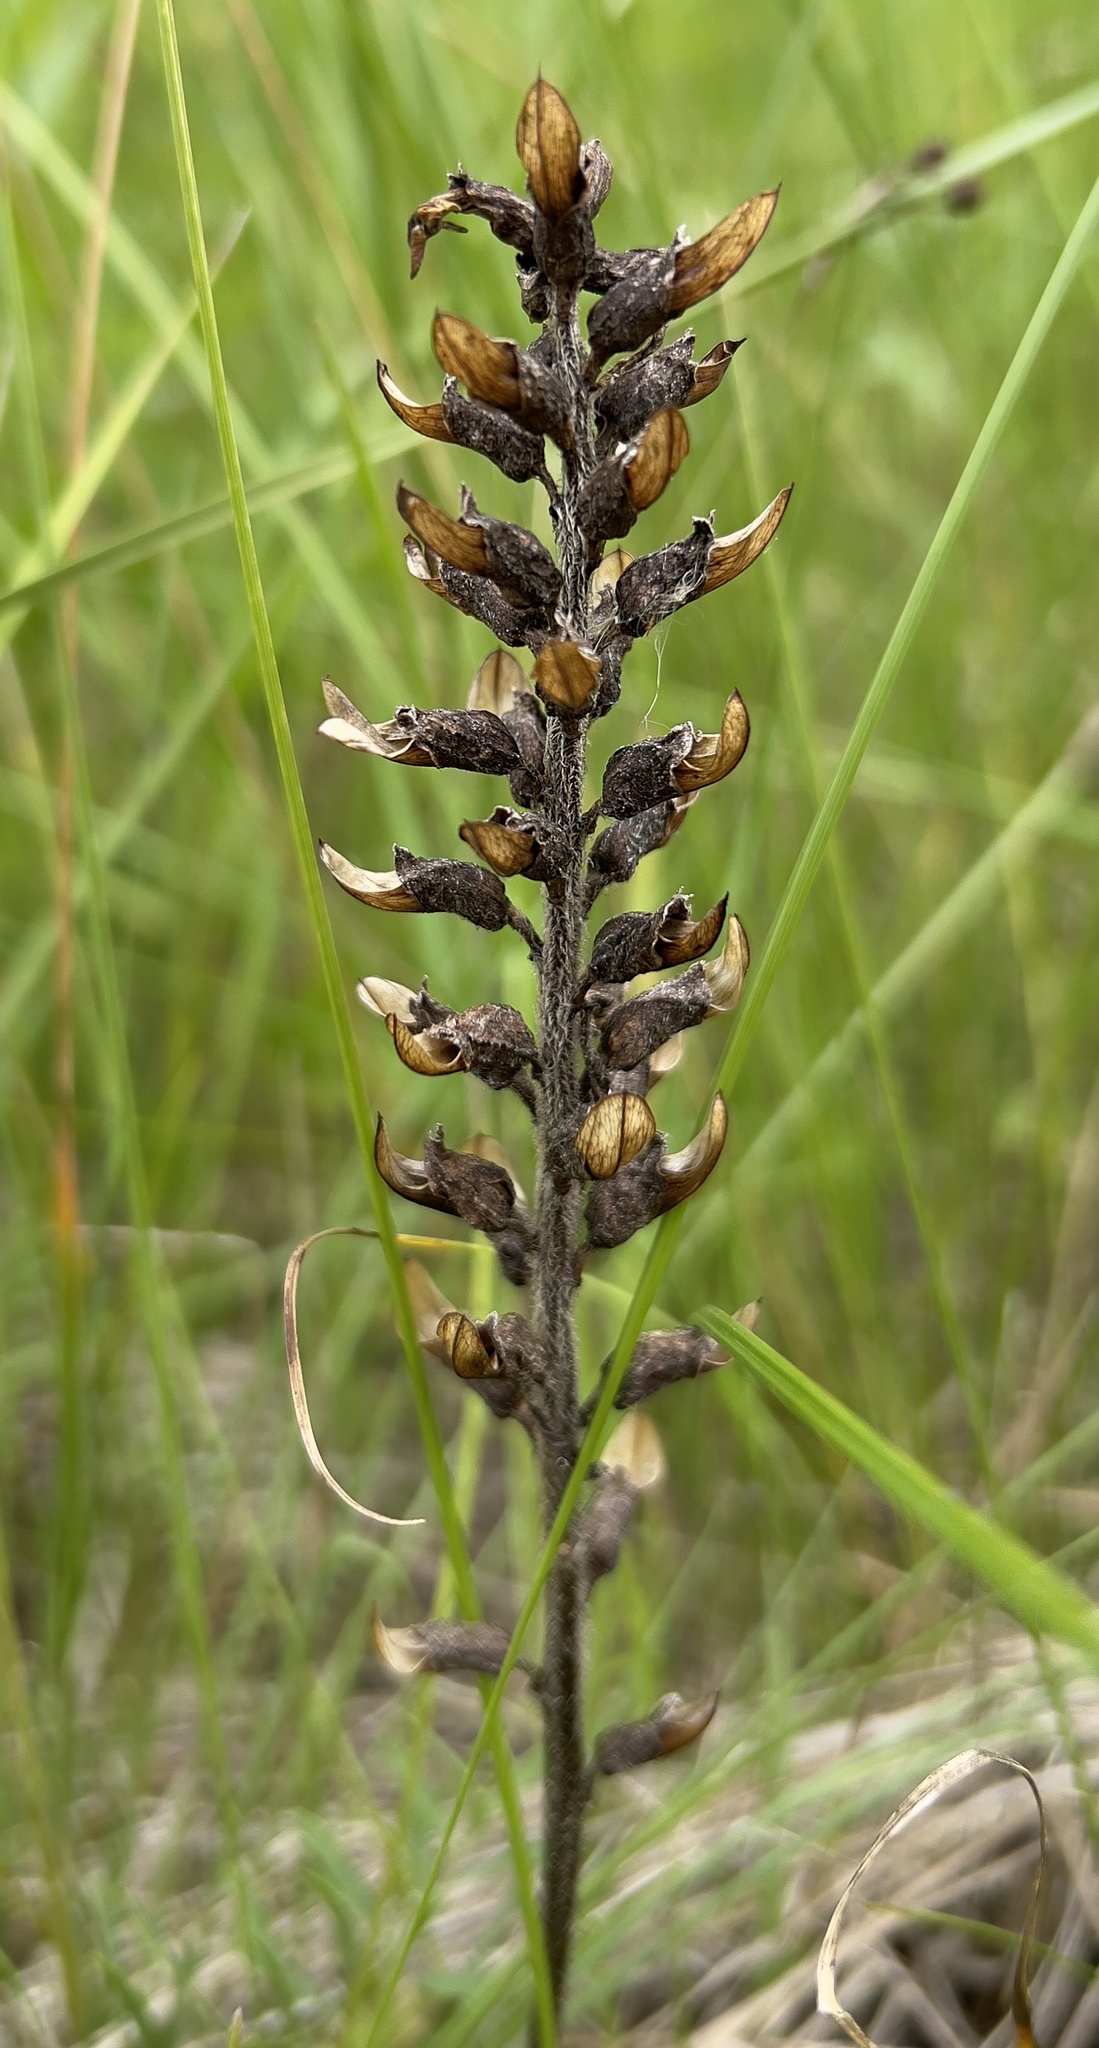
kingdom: Plantae
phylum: Tracheophyta
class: Magnoliopsida
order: Lamiales
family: Orobanchaceae
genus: Pedicularis
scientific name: Pedicularis canadensis
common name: Early lousewort
